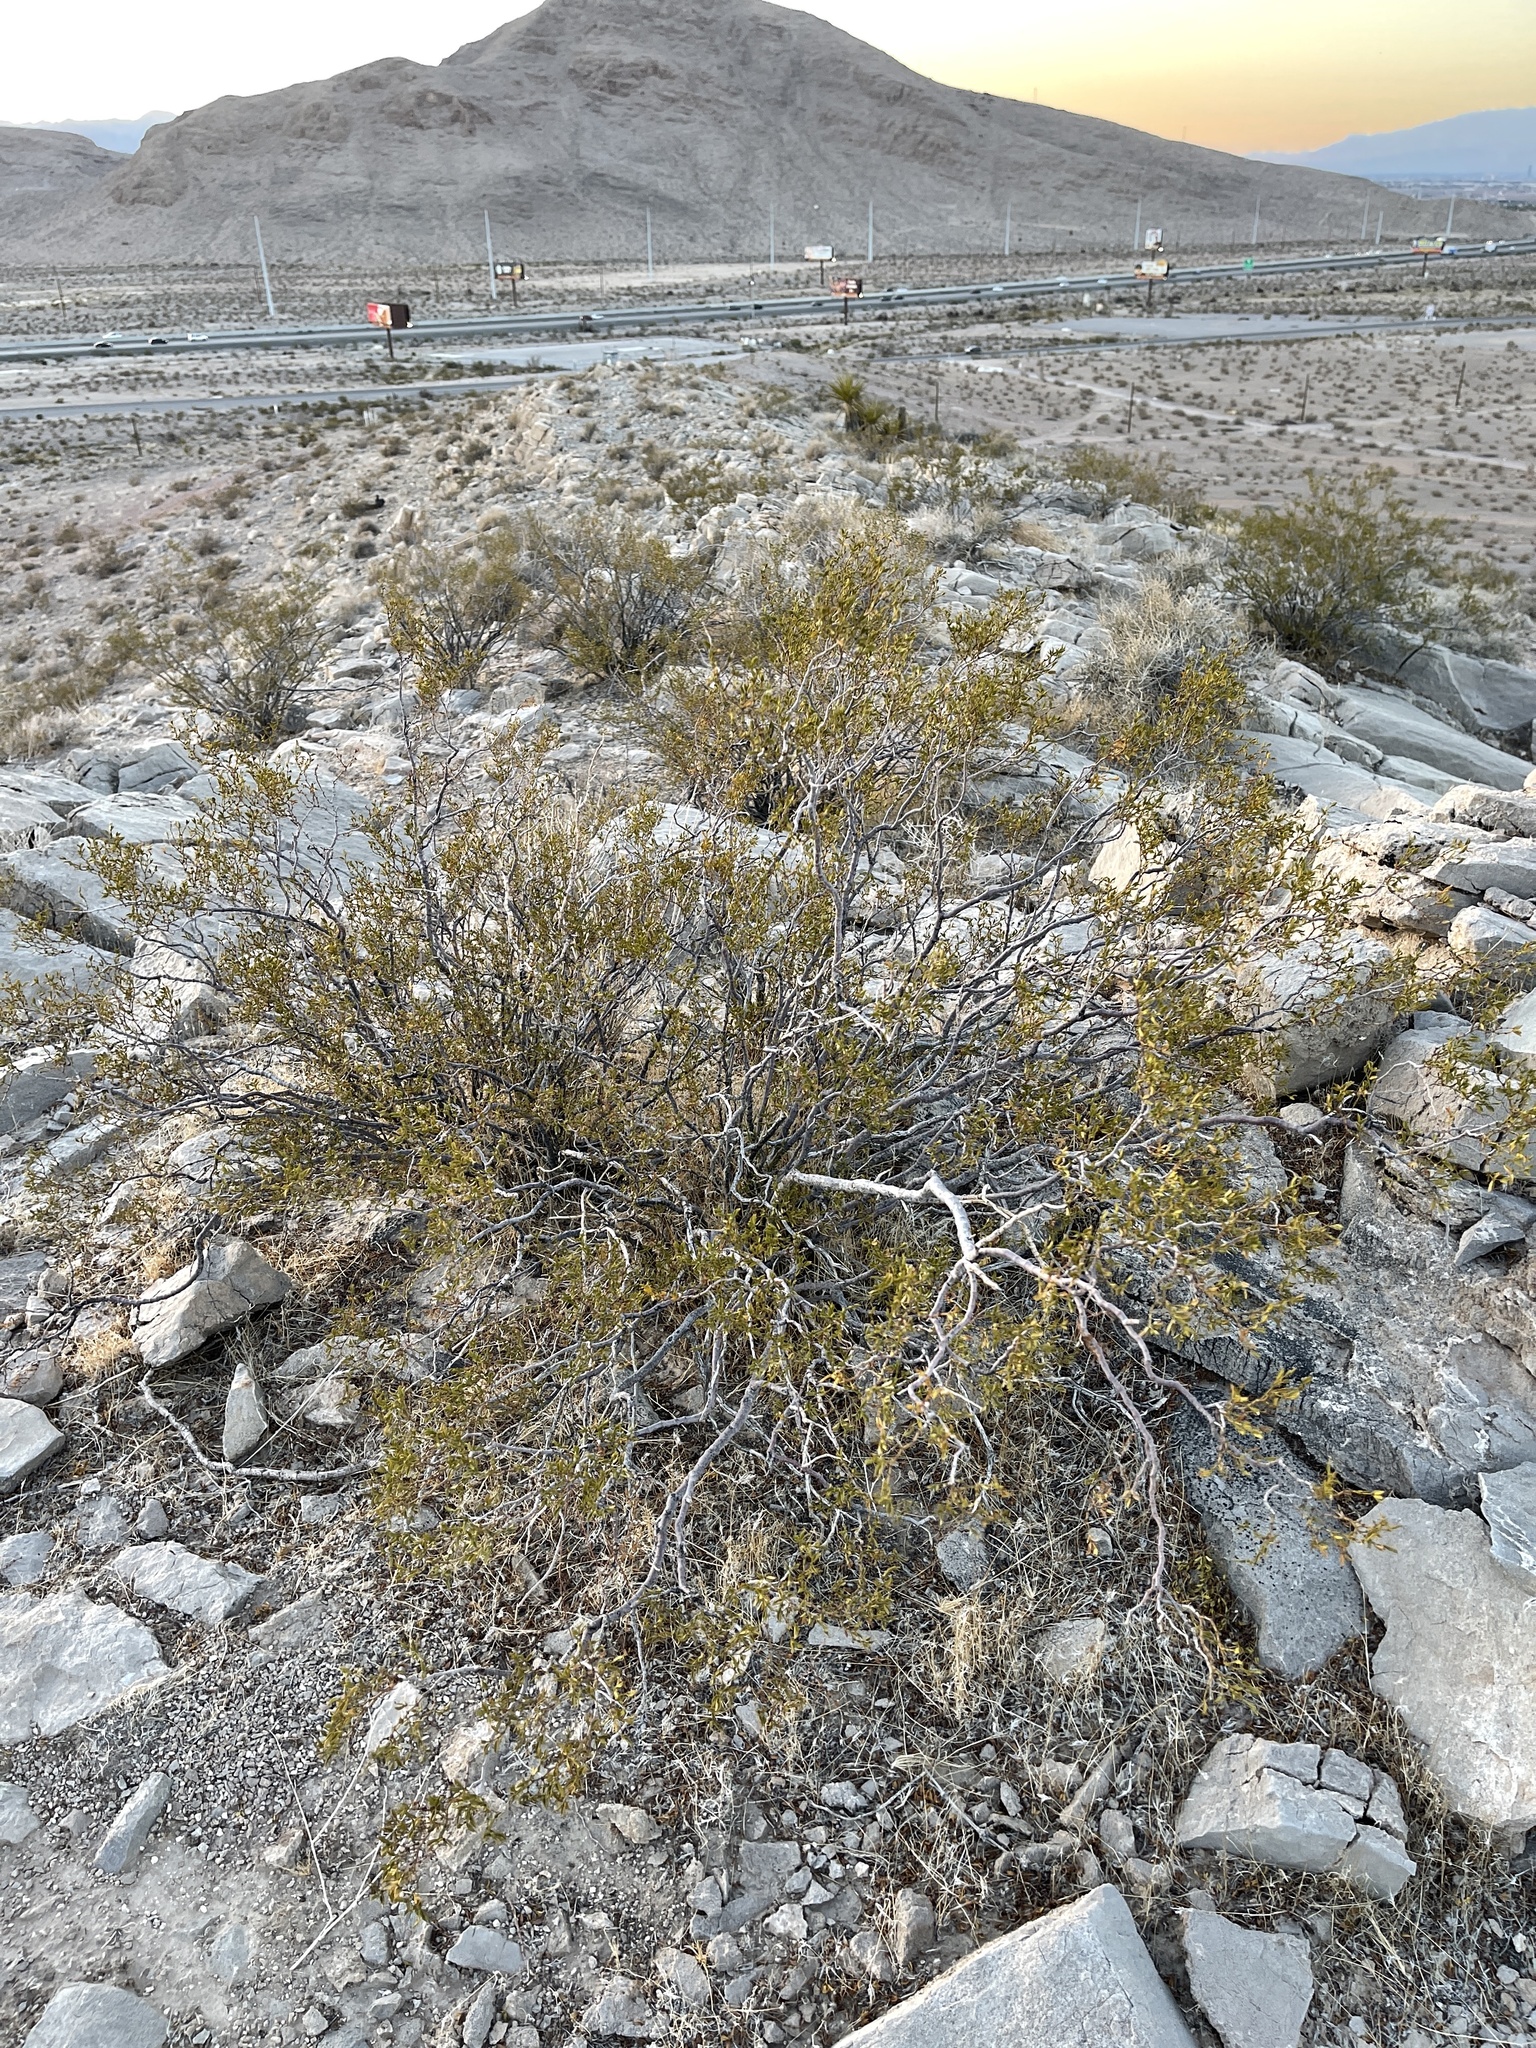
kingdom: Plantae
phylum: Tracheophyta
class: Magnoliopsida
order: Zygophyllales
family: Zygophyllaceae
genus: Larrea
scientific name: Larrea tridentata
